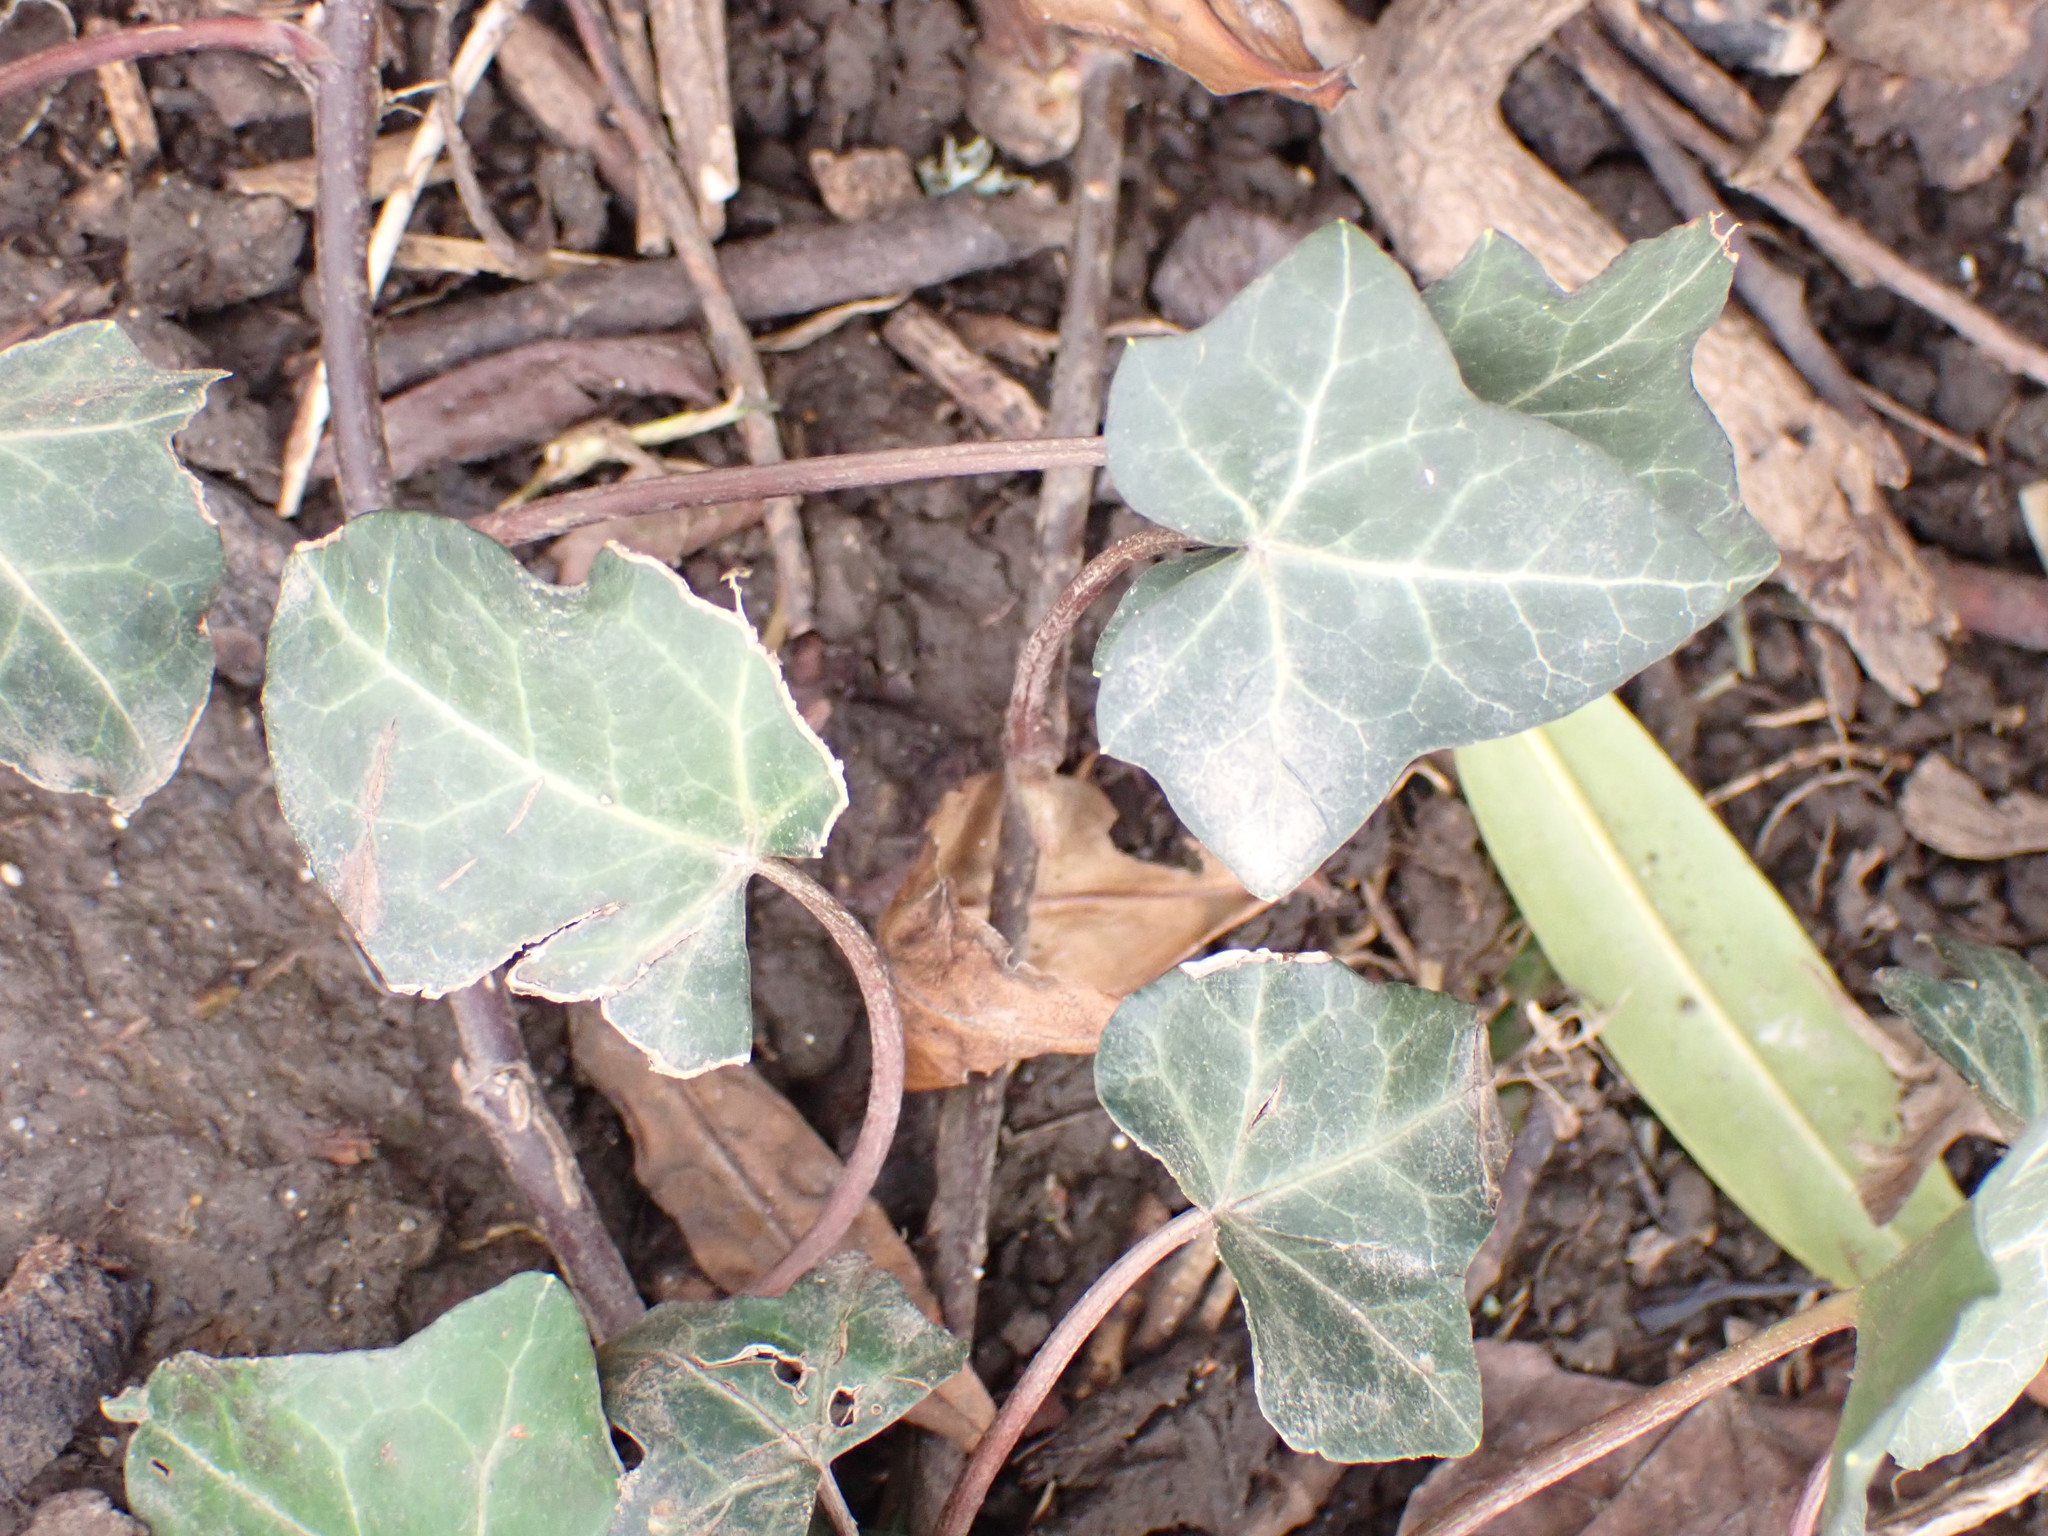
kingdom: Plantae
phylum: Tracheophyta
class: Magnoliopsida
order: Apiales
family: Araliaceae
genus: Hedera
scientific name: Hedera helix
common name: Ivy
